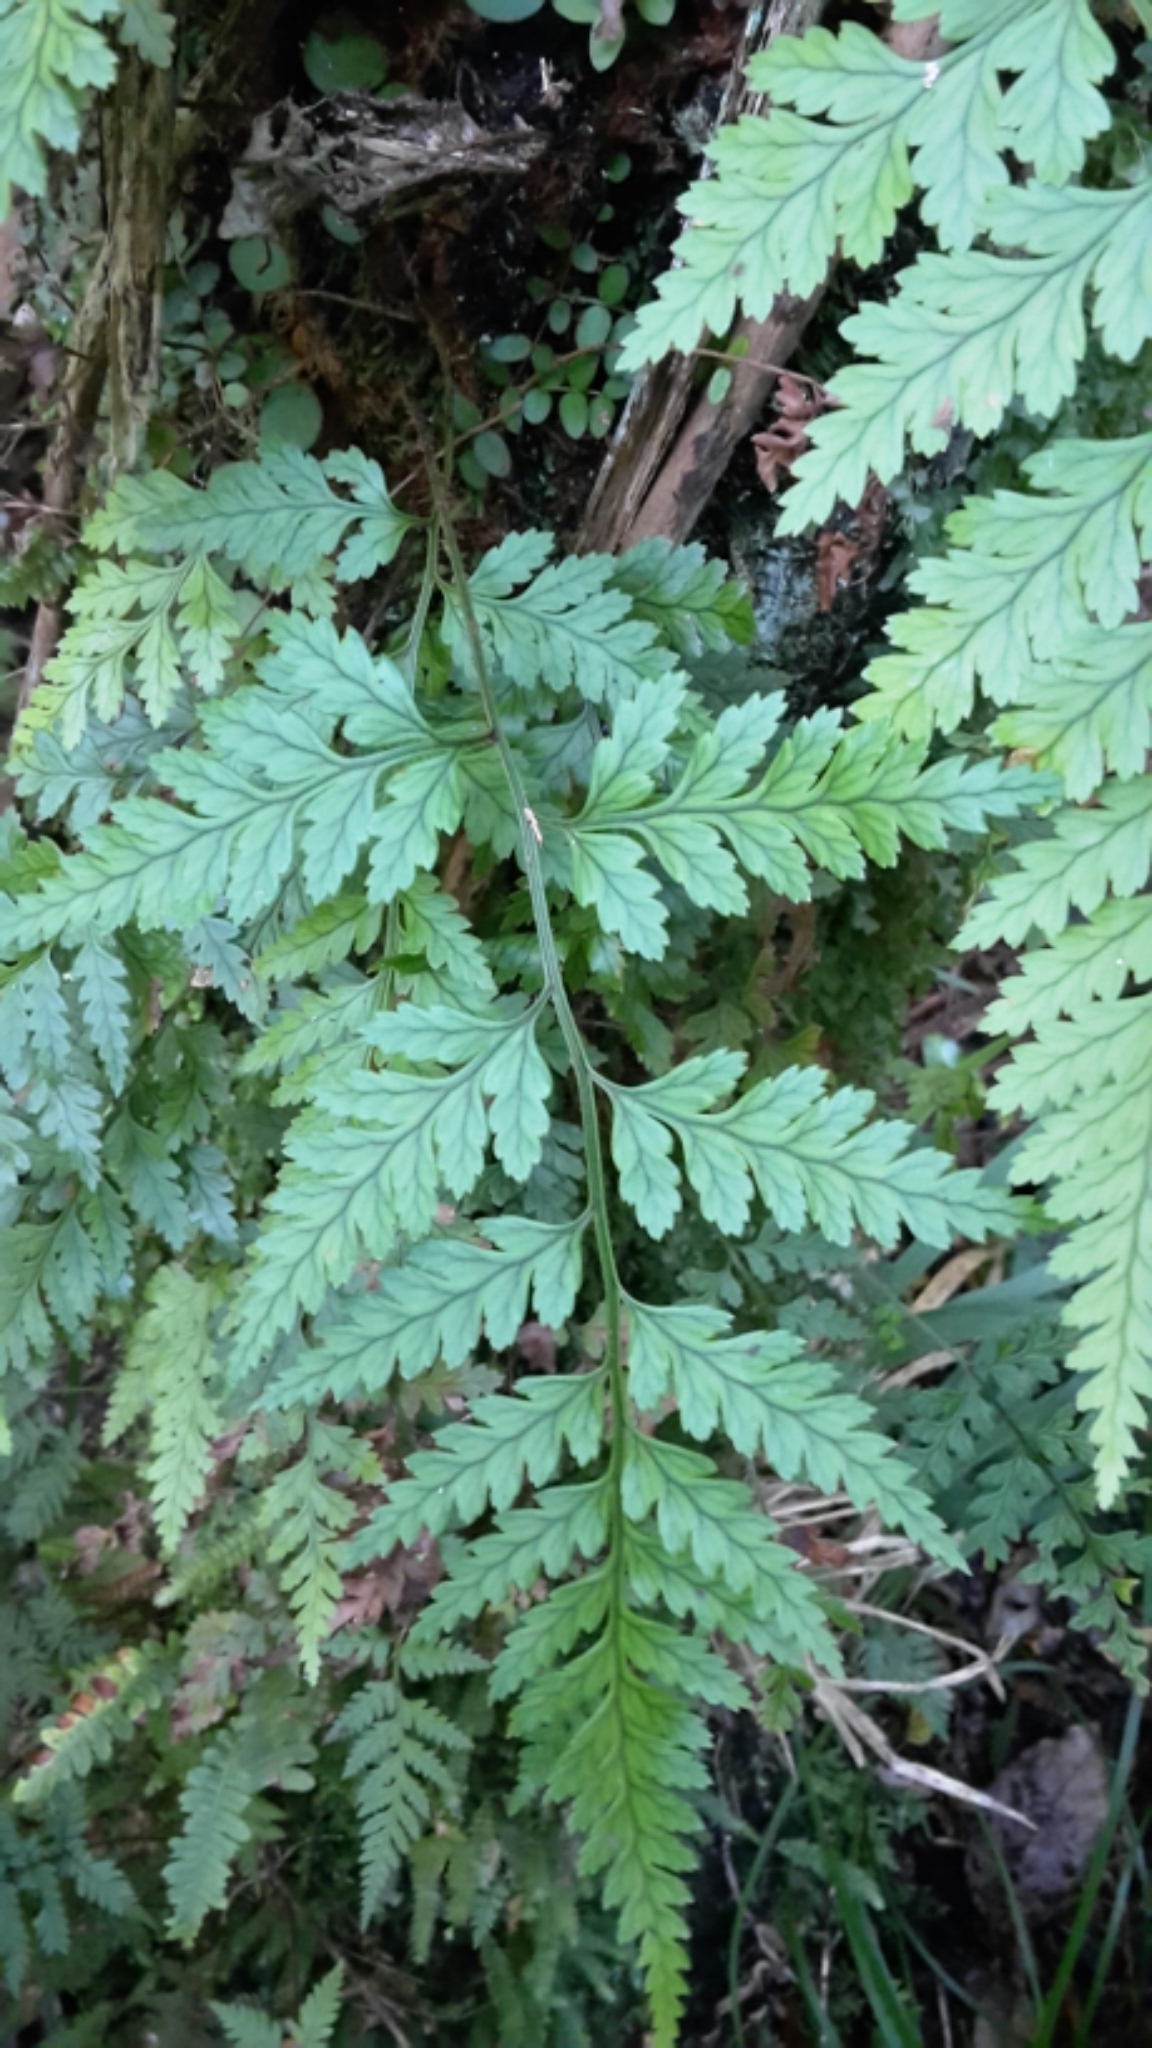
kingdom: Plantae
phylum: Tracheophyta
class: Polypodiopsida
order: Polypodiales
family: Dryopteridaceae
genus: Rumohra
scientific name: Rumohra adiantiformis
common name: Leather fern
